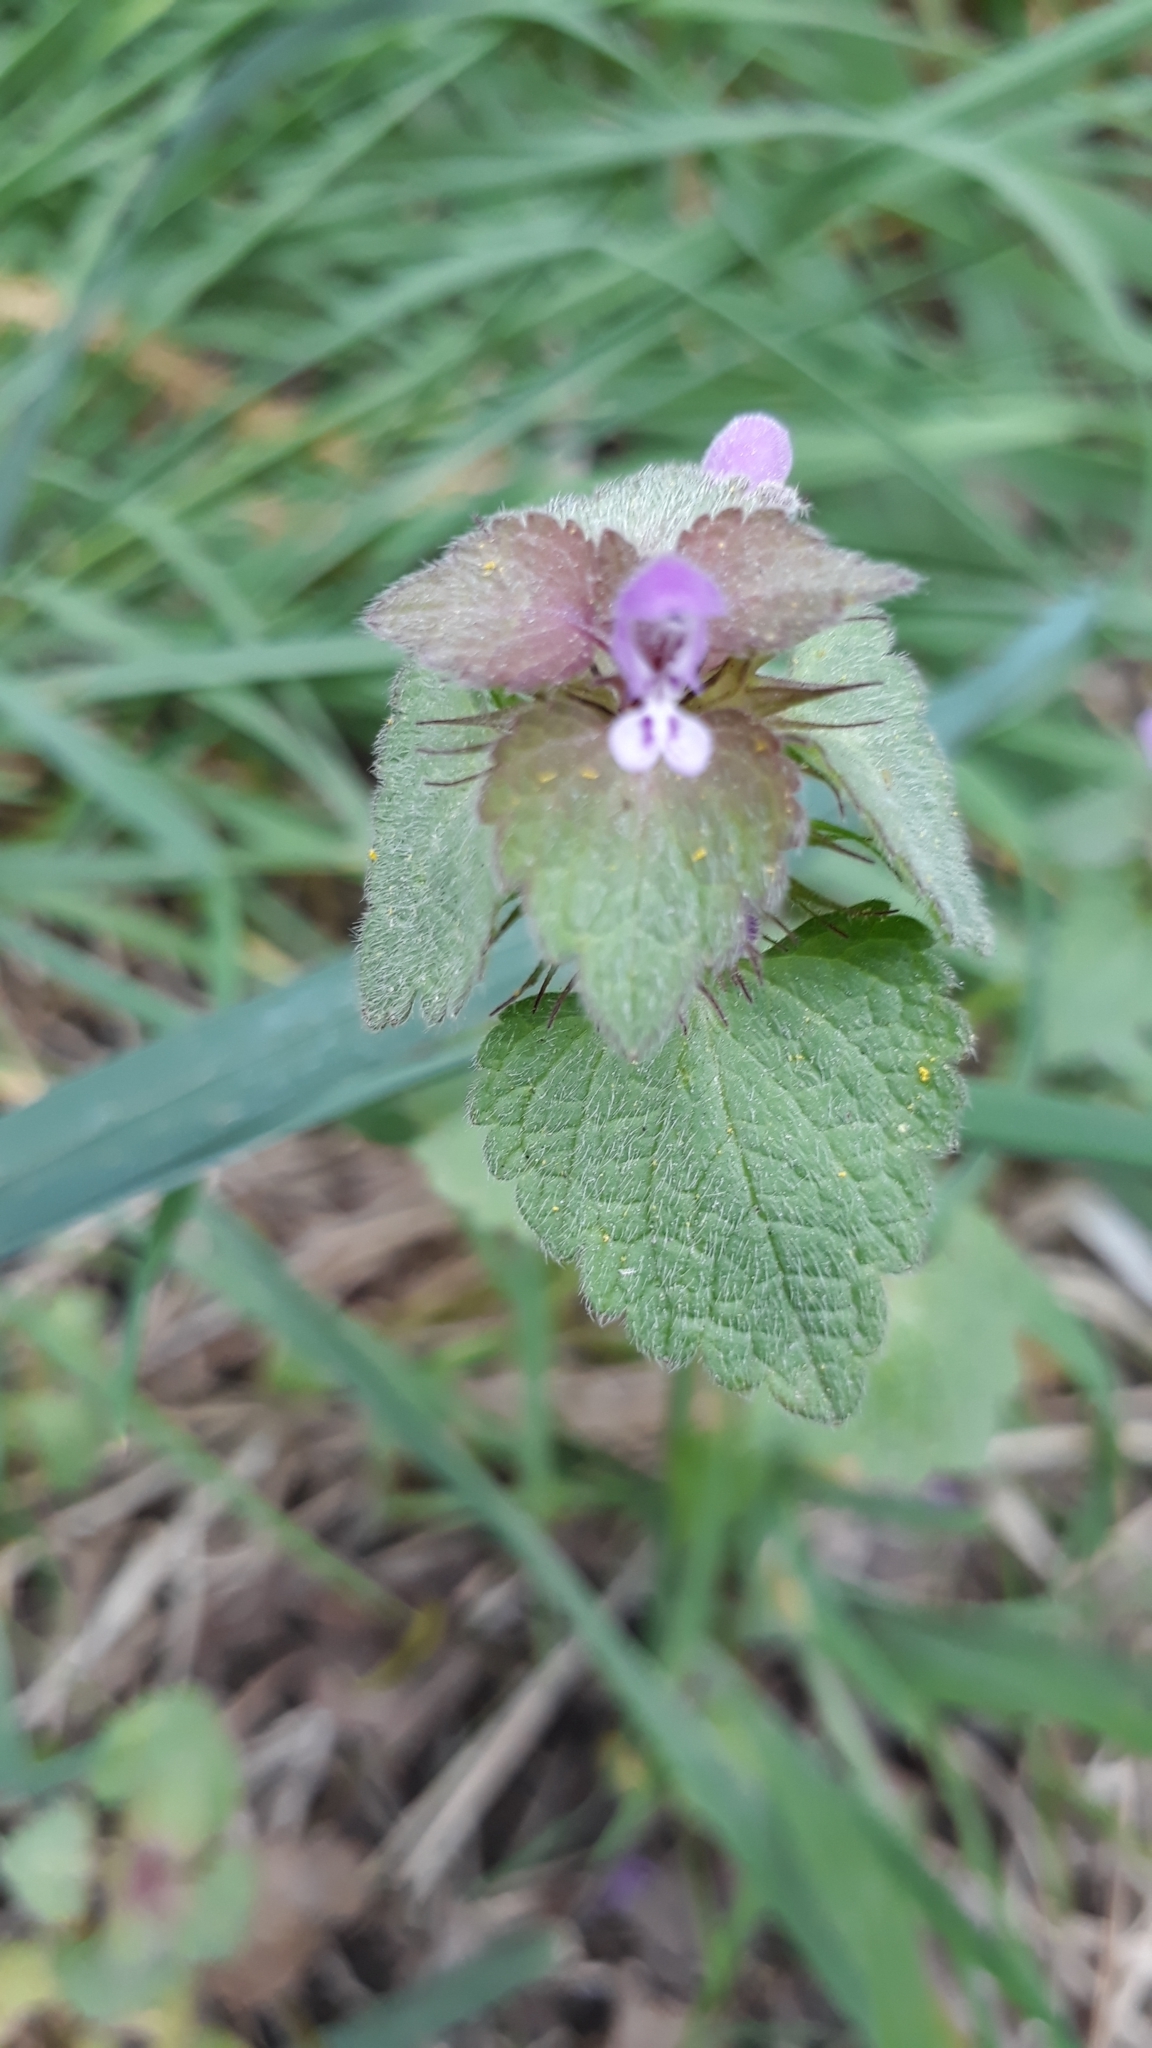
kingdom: Plantae
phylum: Tracheophyta
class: Magnoliopsida
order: Lamiales
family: Lamiaceae
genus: Lamium
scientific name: Lamium purpureum
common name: Red dead-nettle
